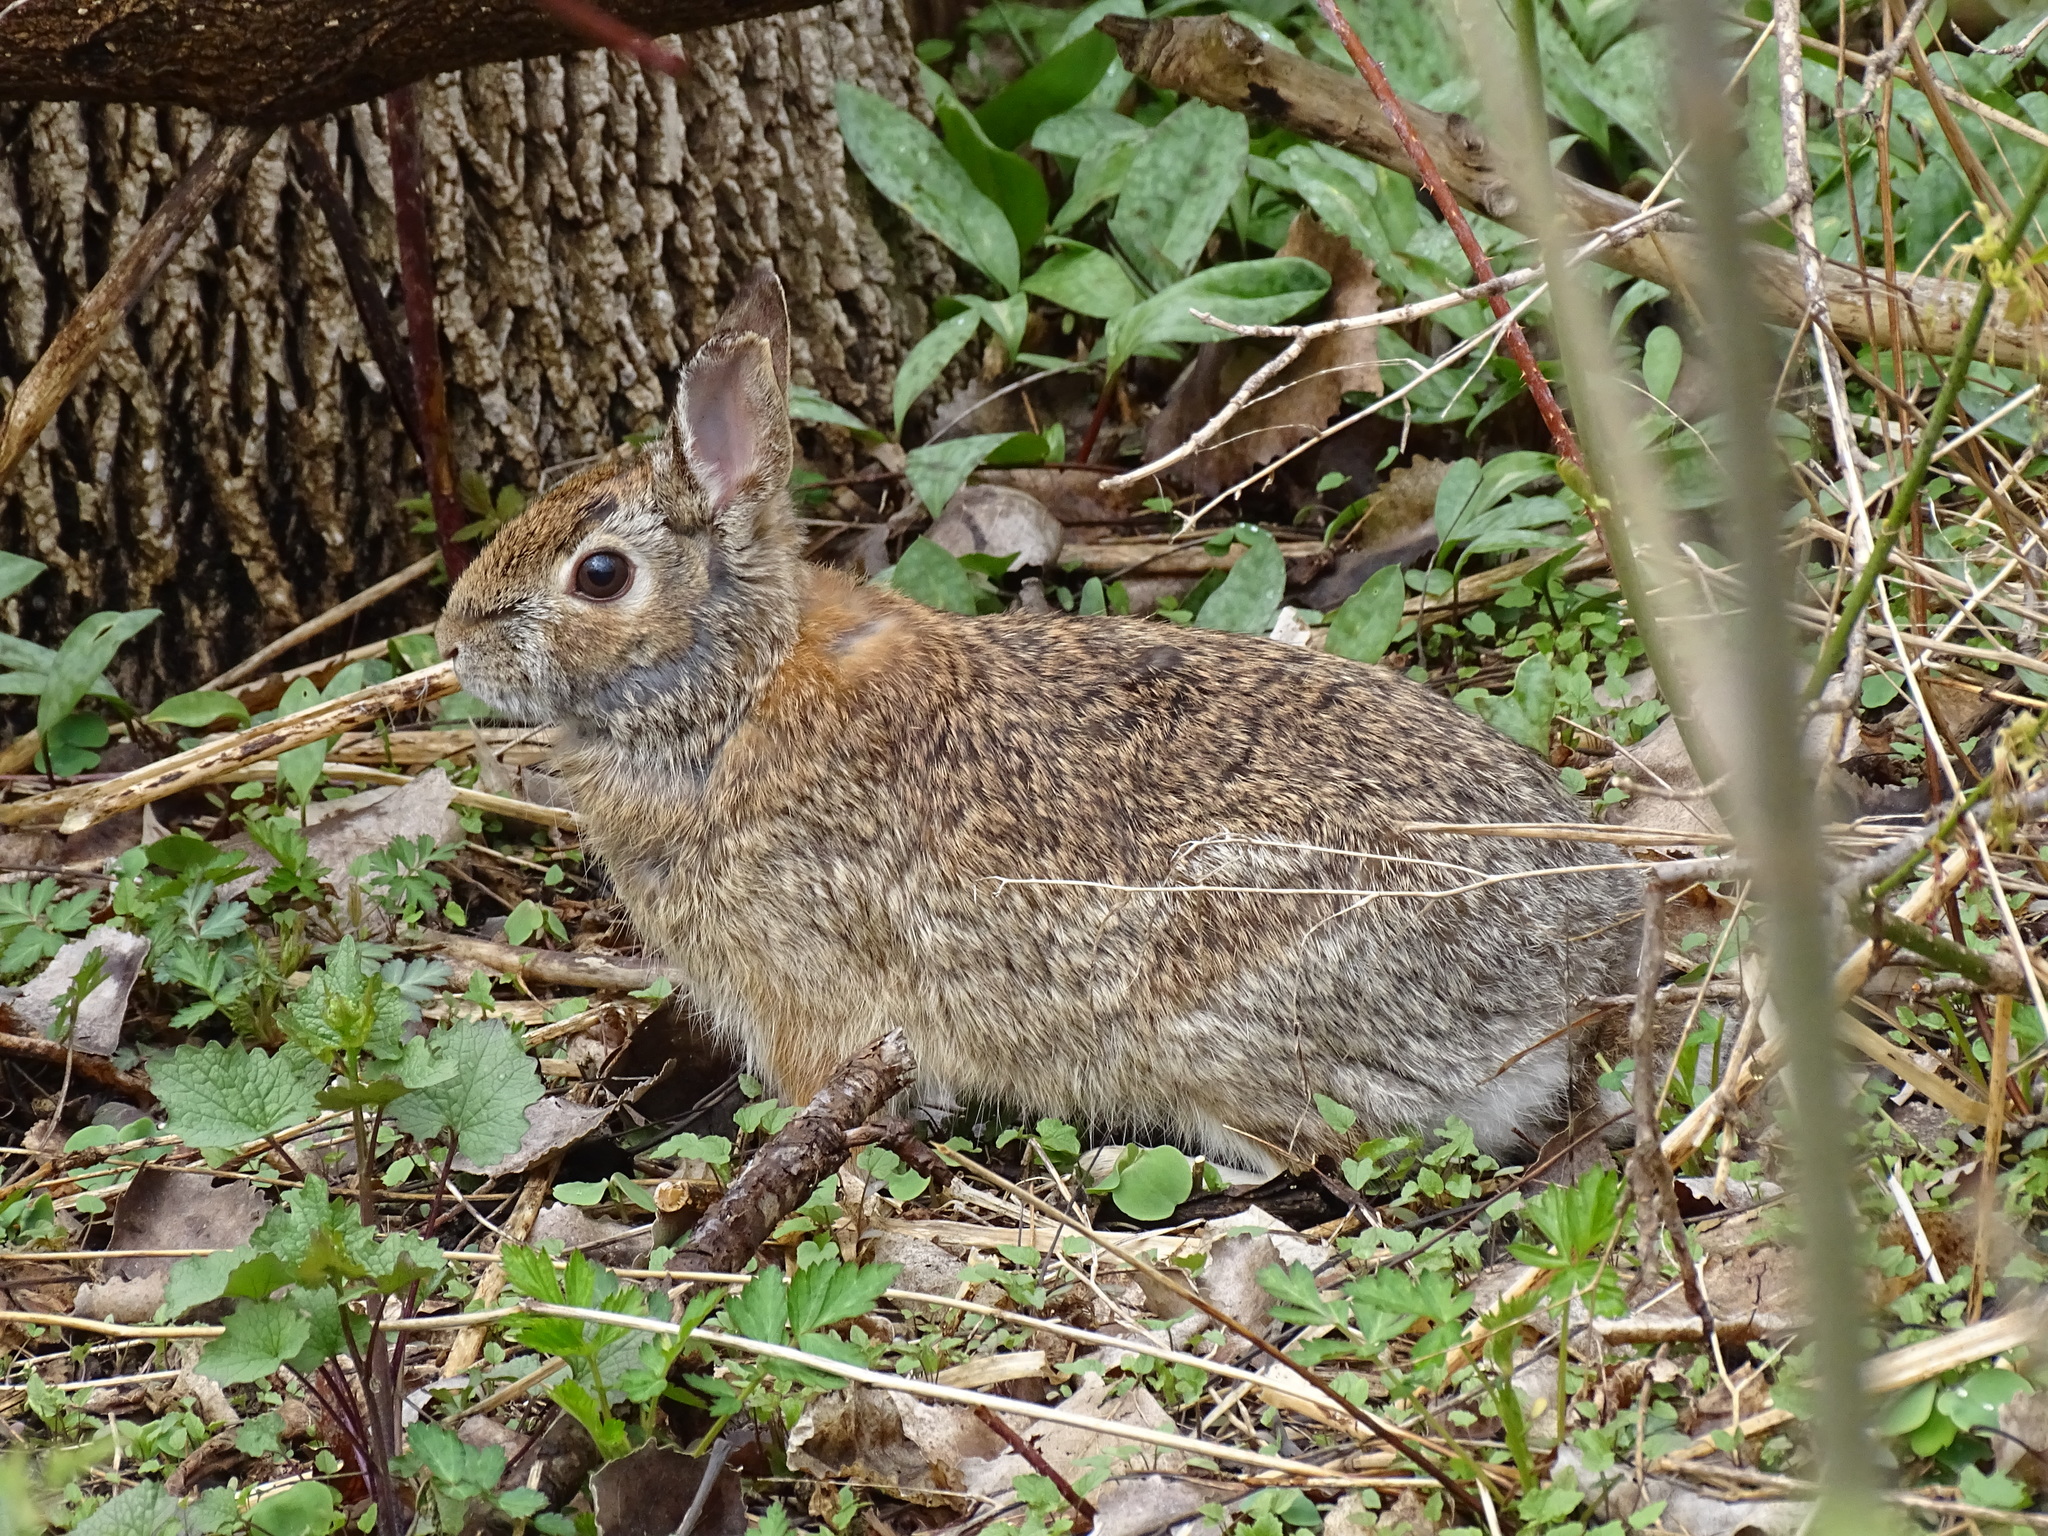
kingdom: Animalia
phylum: Chordata
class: Mammalia
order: Lagomorpha
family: Leporidae
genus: Sylvilagus
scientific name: Sylvilagus floridanus
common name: Eastern cottontail
